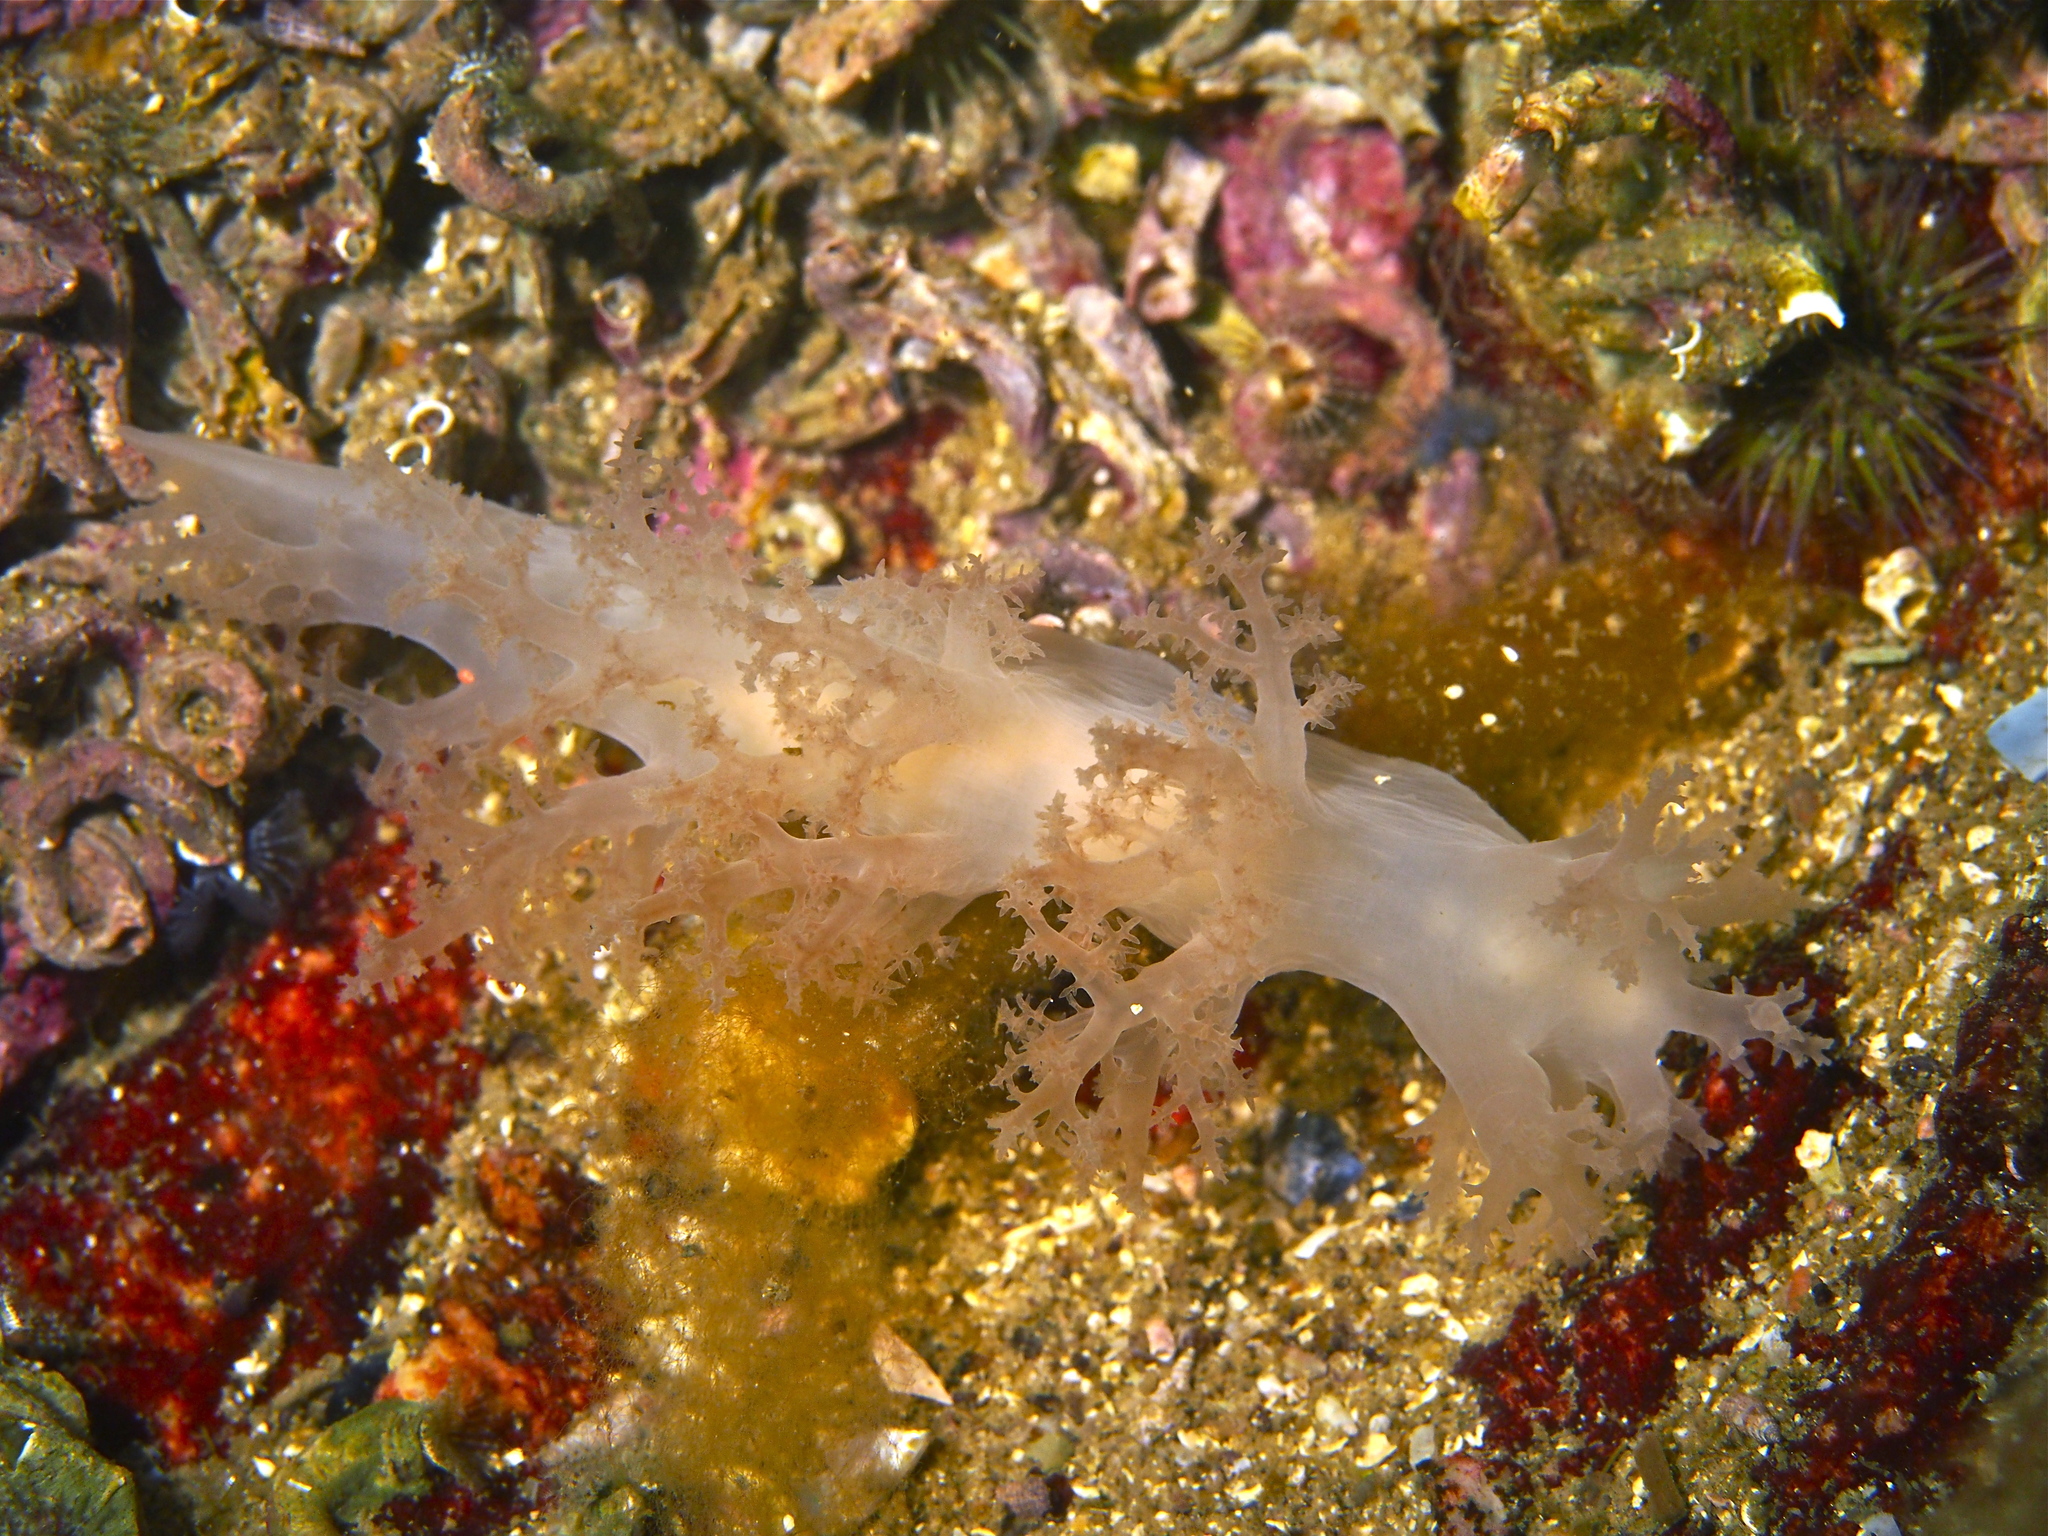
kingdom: Animalia
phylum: Mollusca
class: Gastropoda
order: Nudibranchia
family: Dendronotidae
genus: Dendronotus
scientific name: Dendronotus lacteus
